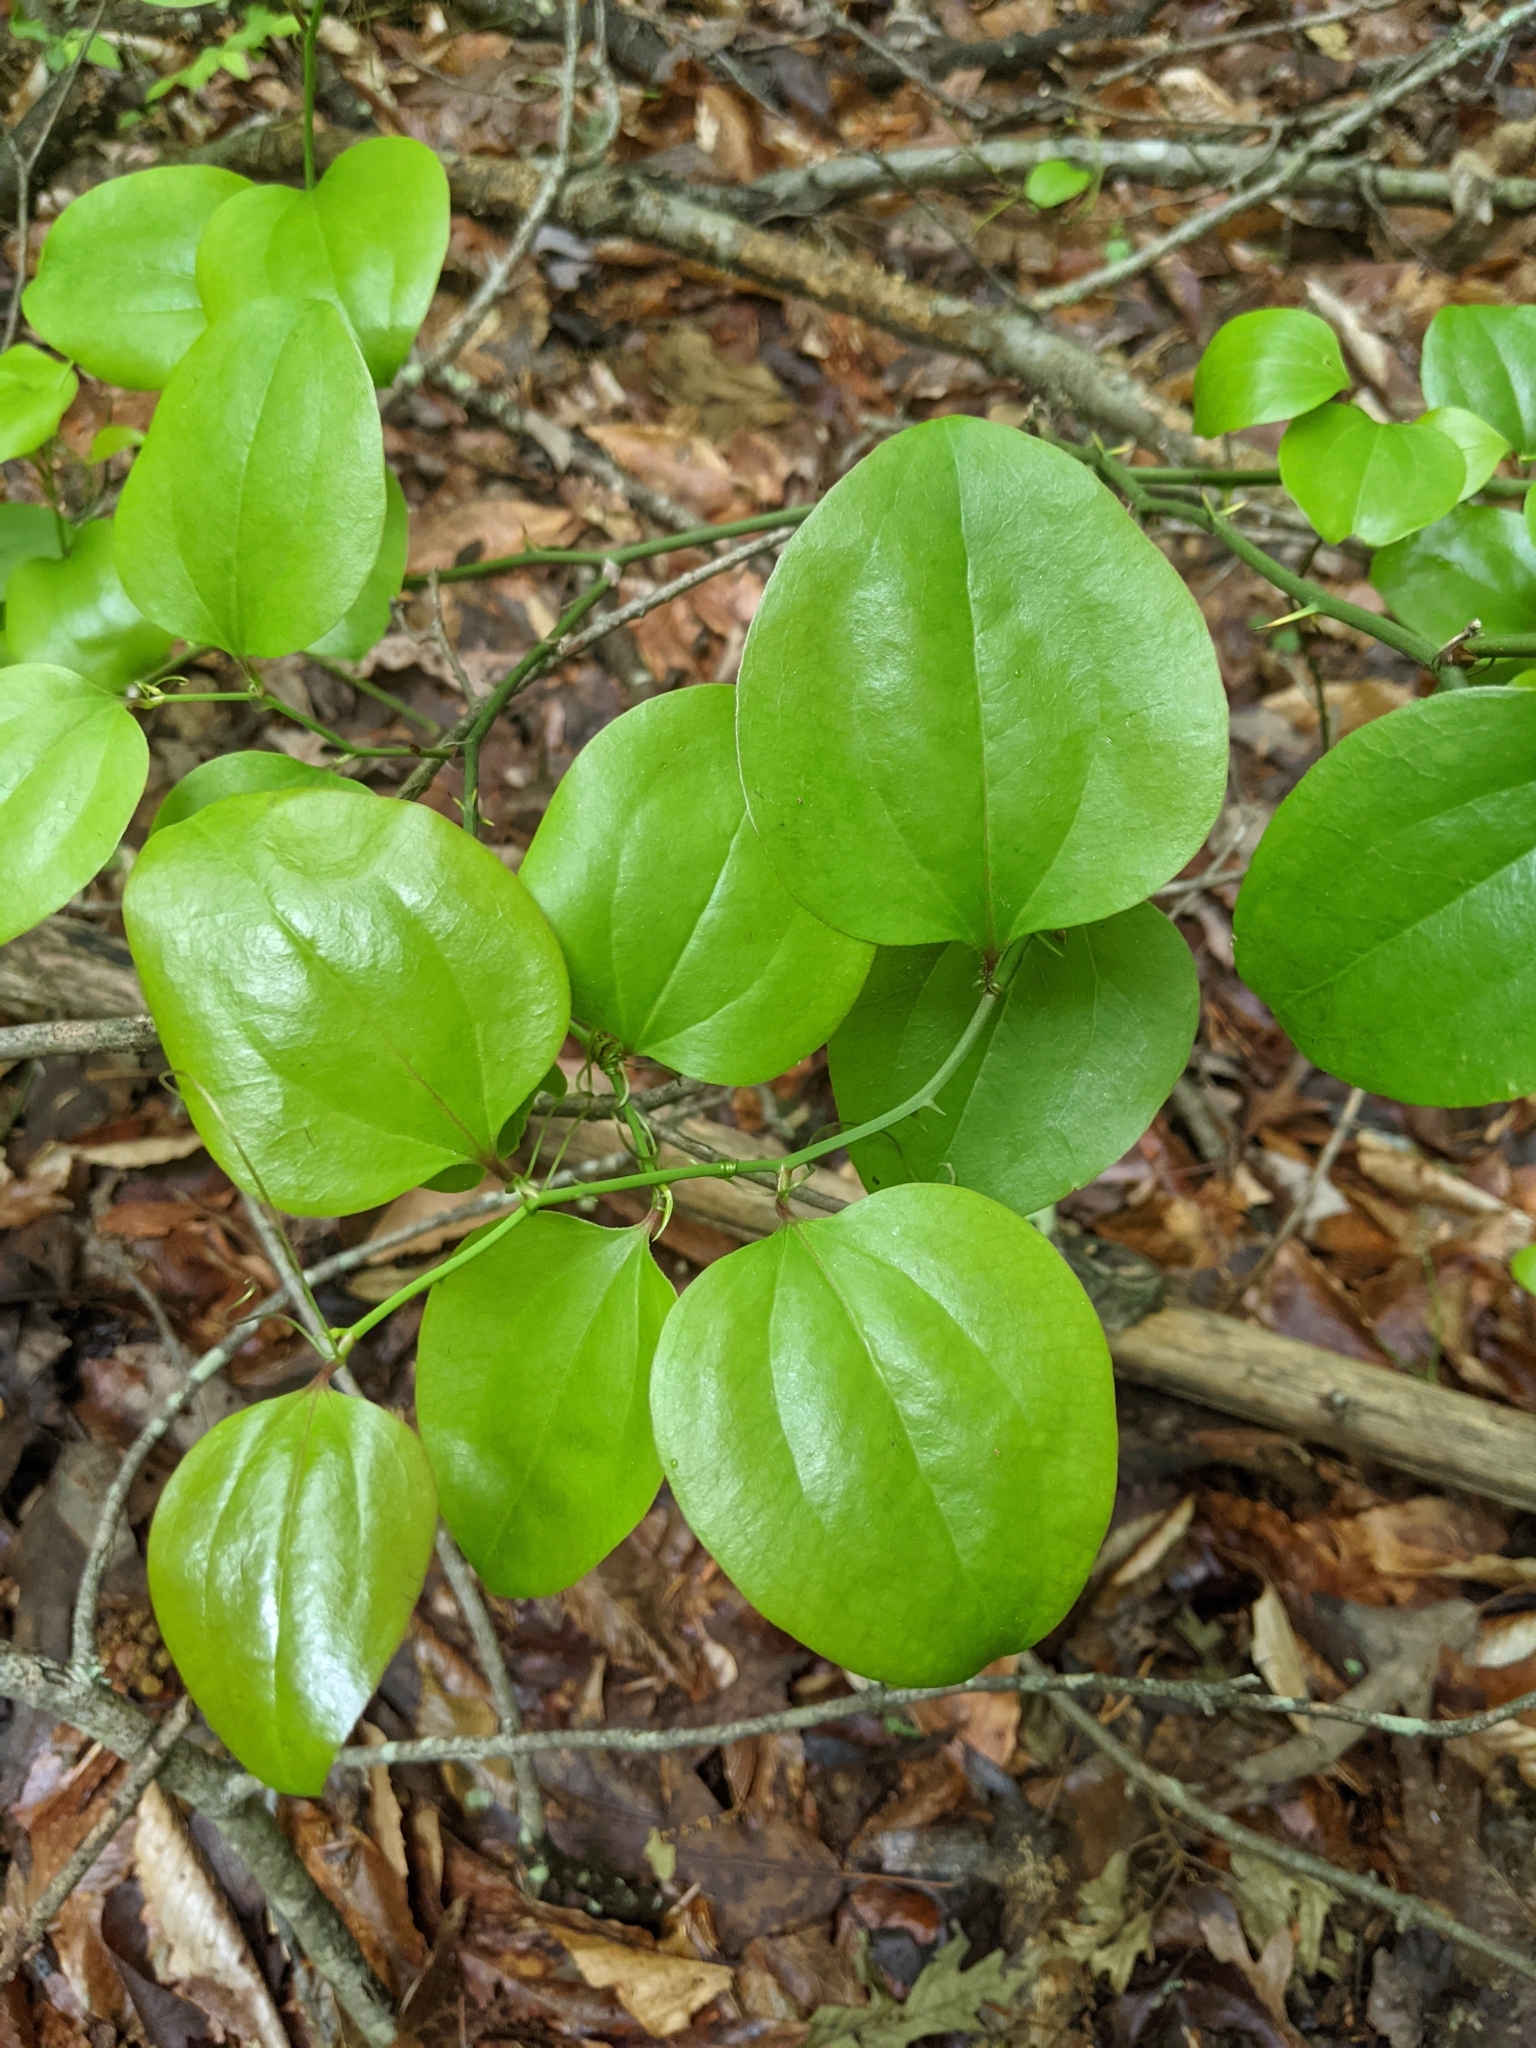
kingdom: Plantae
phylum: Tracheophyta
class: Liliopsida
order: Liliales
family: Smilacaceae
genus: Smilax
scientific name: Smilax rotundifolia
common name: Bullbriar
